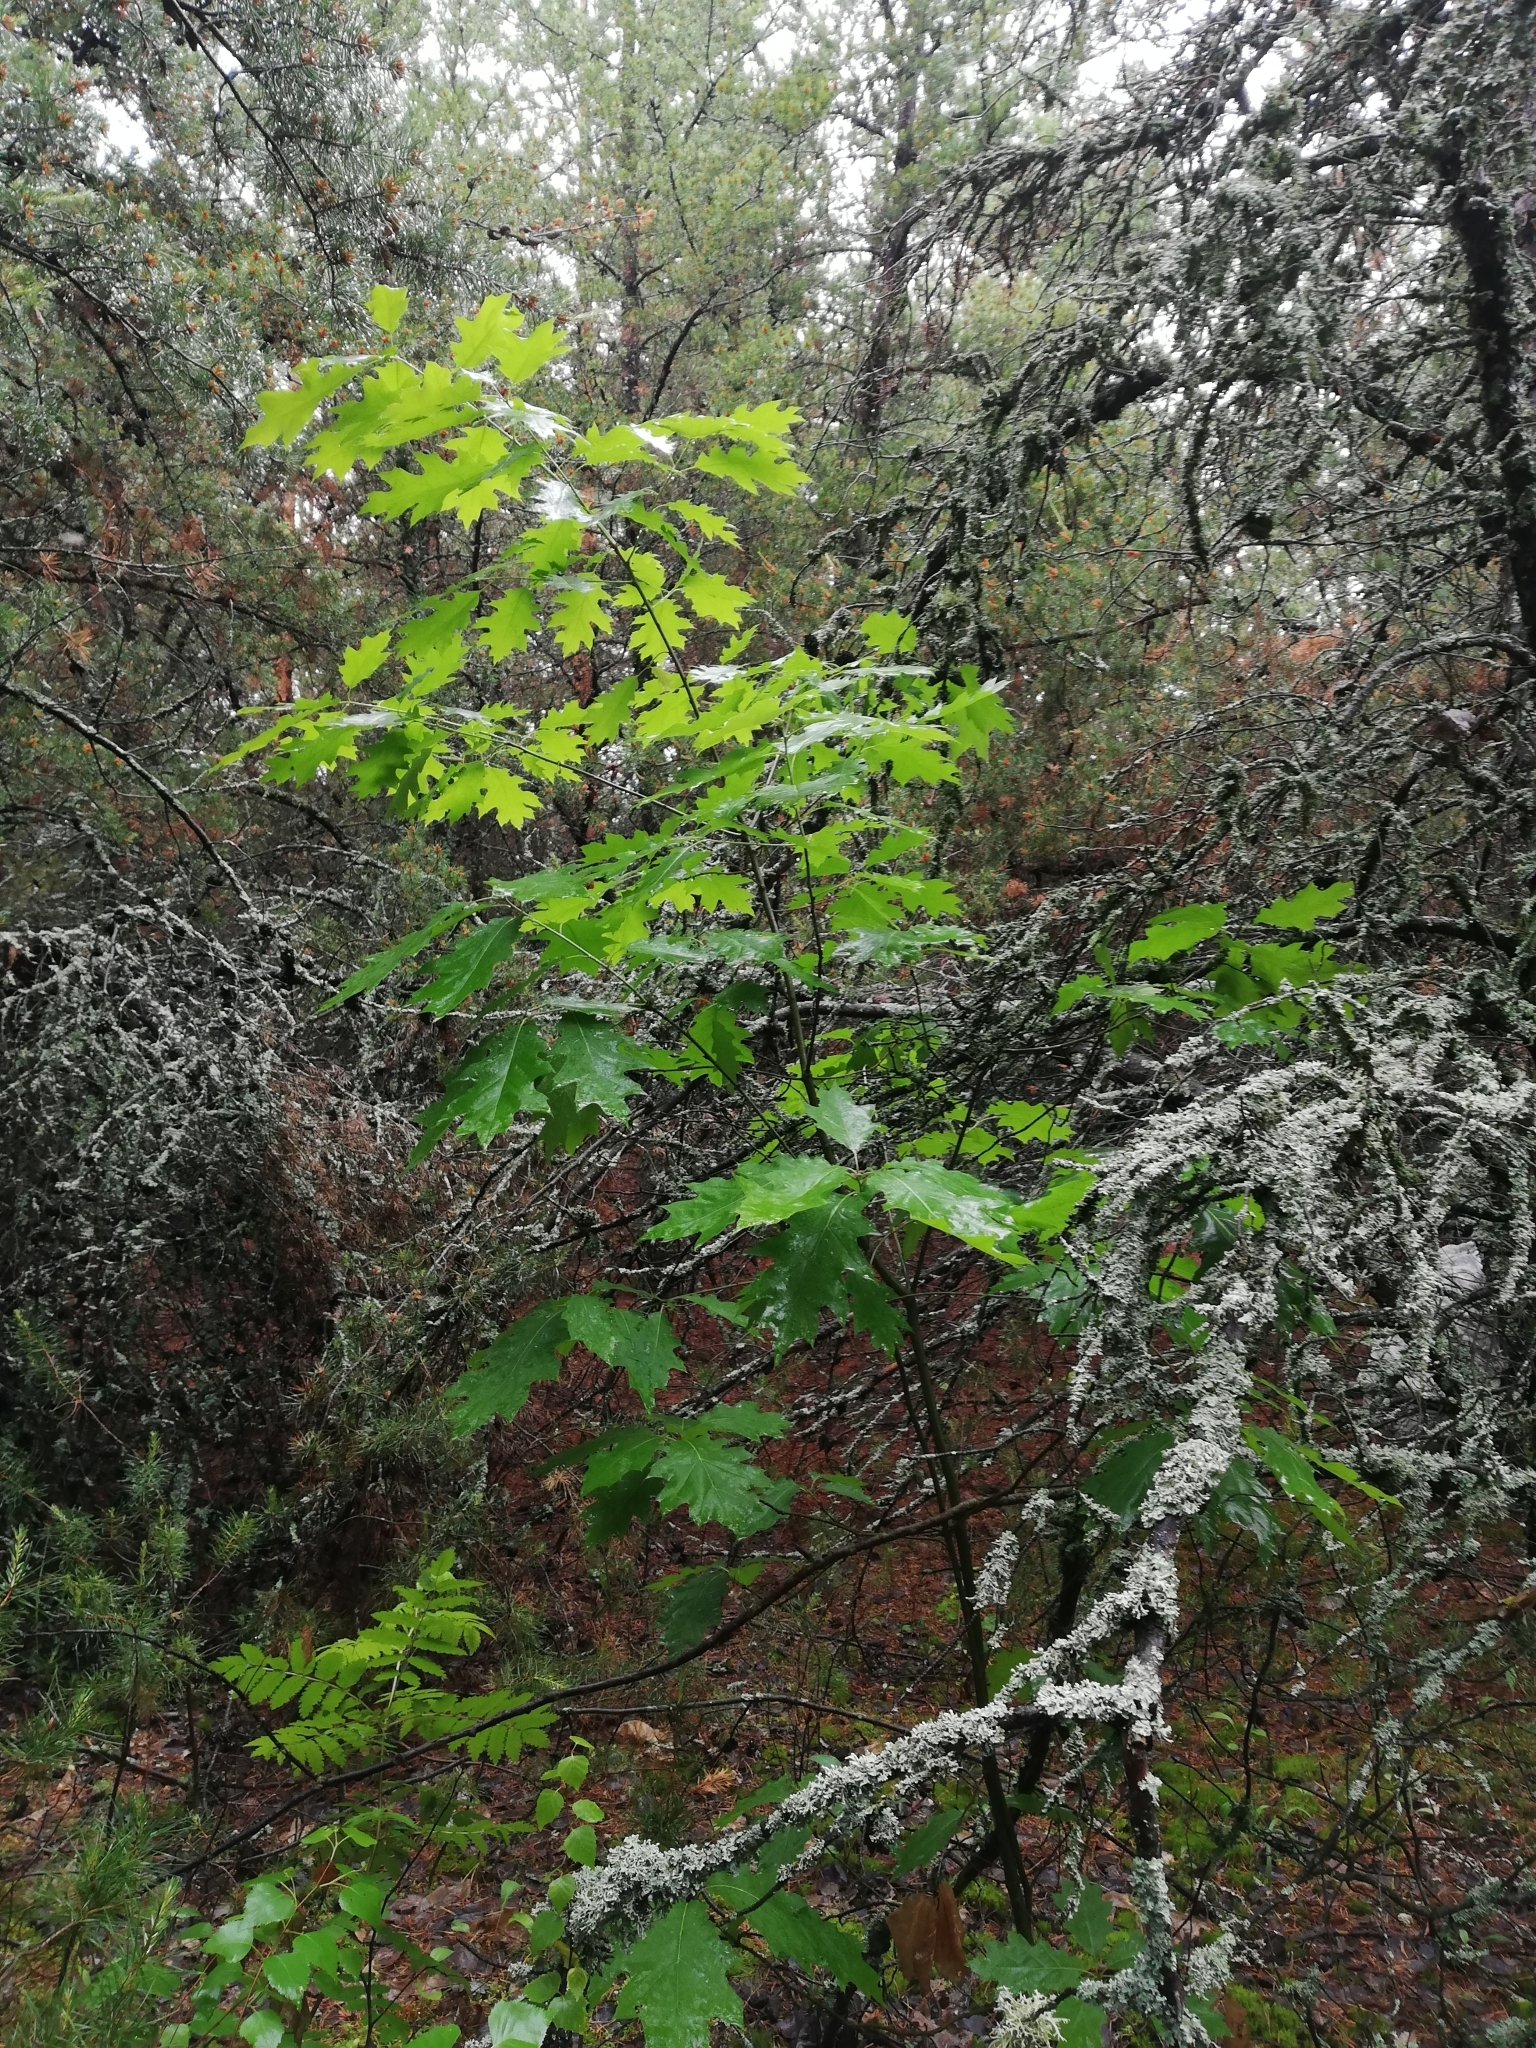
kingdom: Plantae
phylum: Tracheophyta
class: Magnoliopsida
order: Fagales
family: Fagaceae
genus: Quercus
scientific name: Quercus rubra
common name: Red oak
